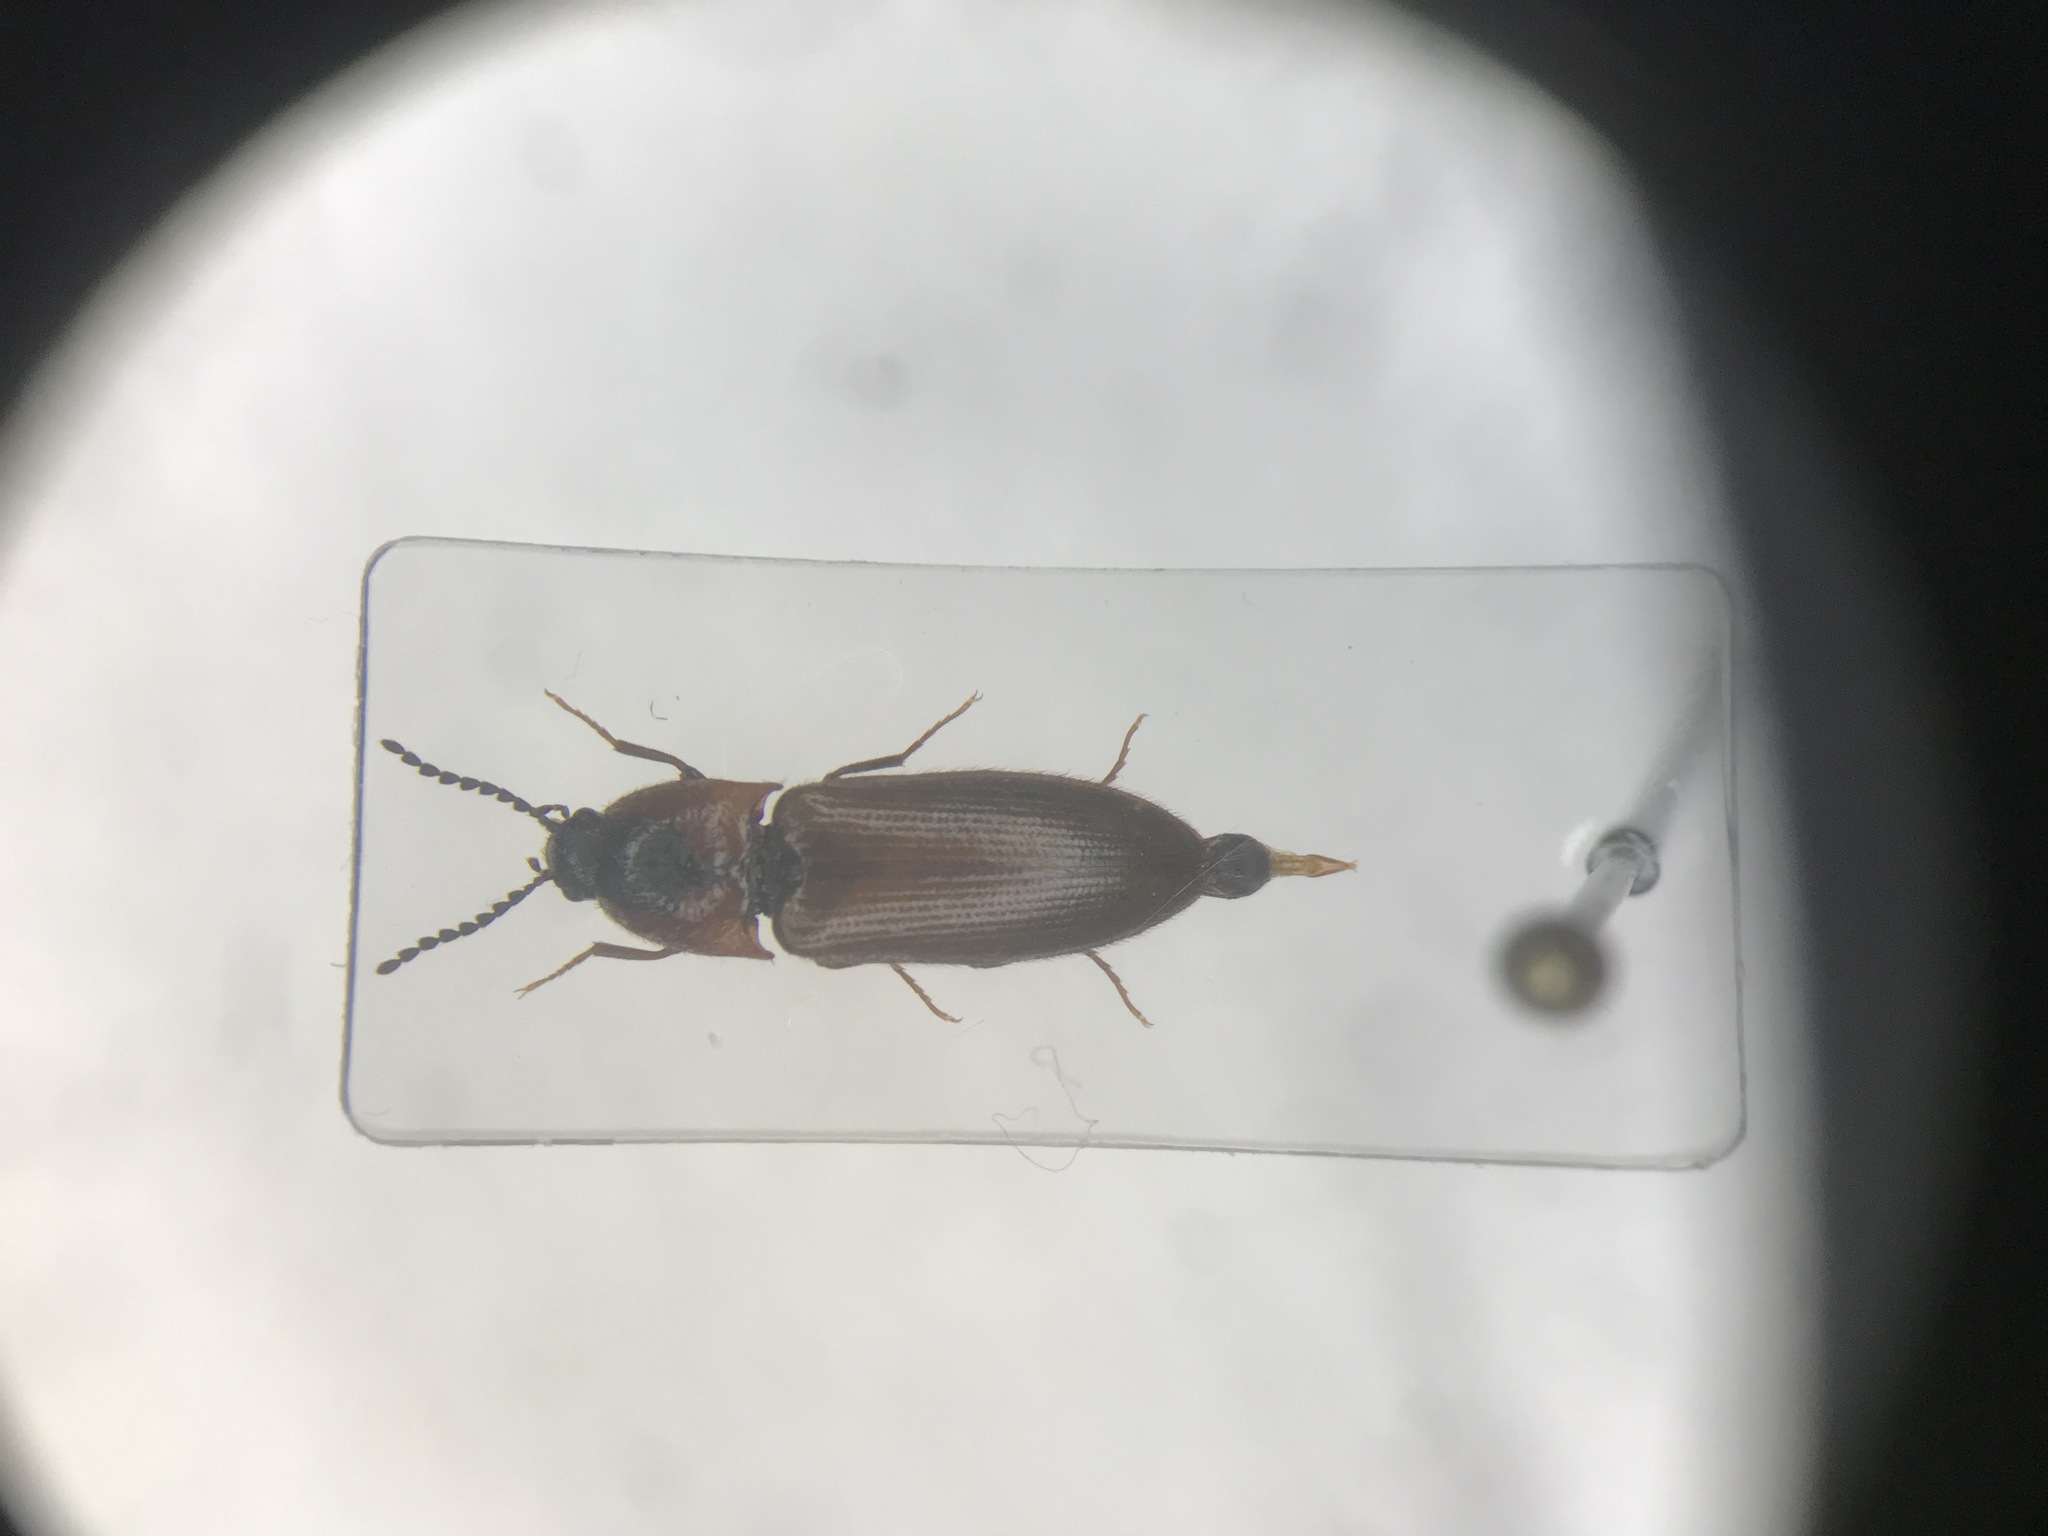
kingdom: Animalia
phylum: Arthropoda
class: Insecta
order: Coleoptera
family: Elateridae
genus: Ampedus
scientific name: Ampedus rubricus
